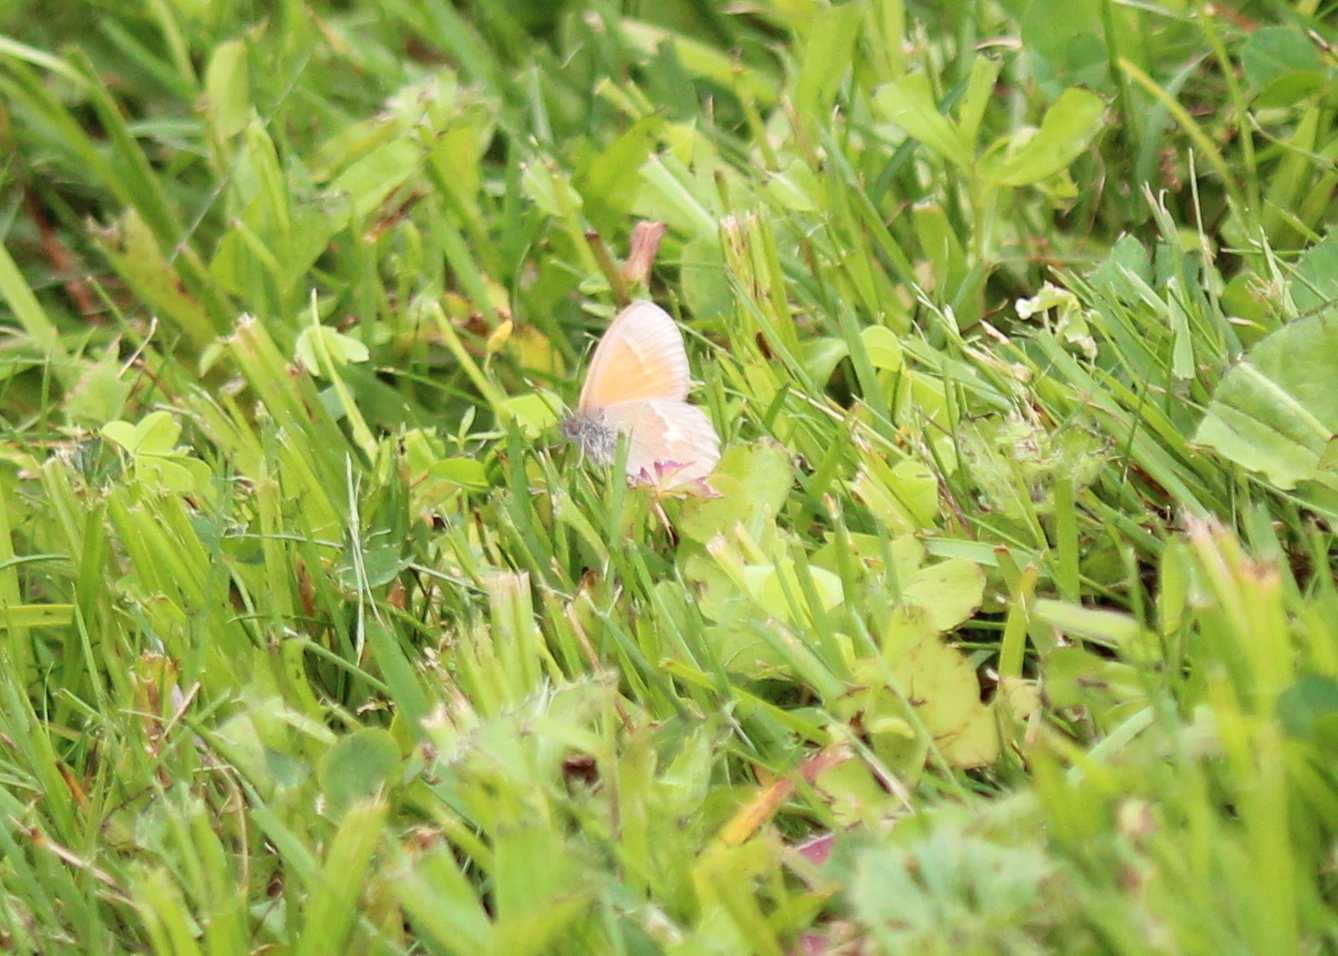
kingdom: Animalia
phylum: Arthropoda
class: Insecta
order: Lepidoptera
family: Nymphalidae
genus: Coenonympha
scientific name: Coenonympha california
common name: Common ringlet
